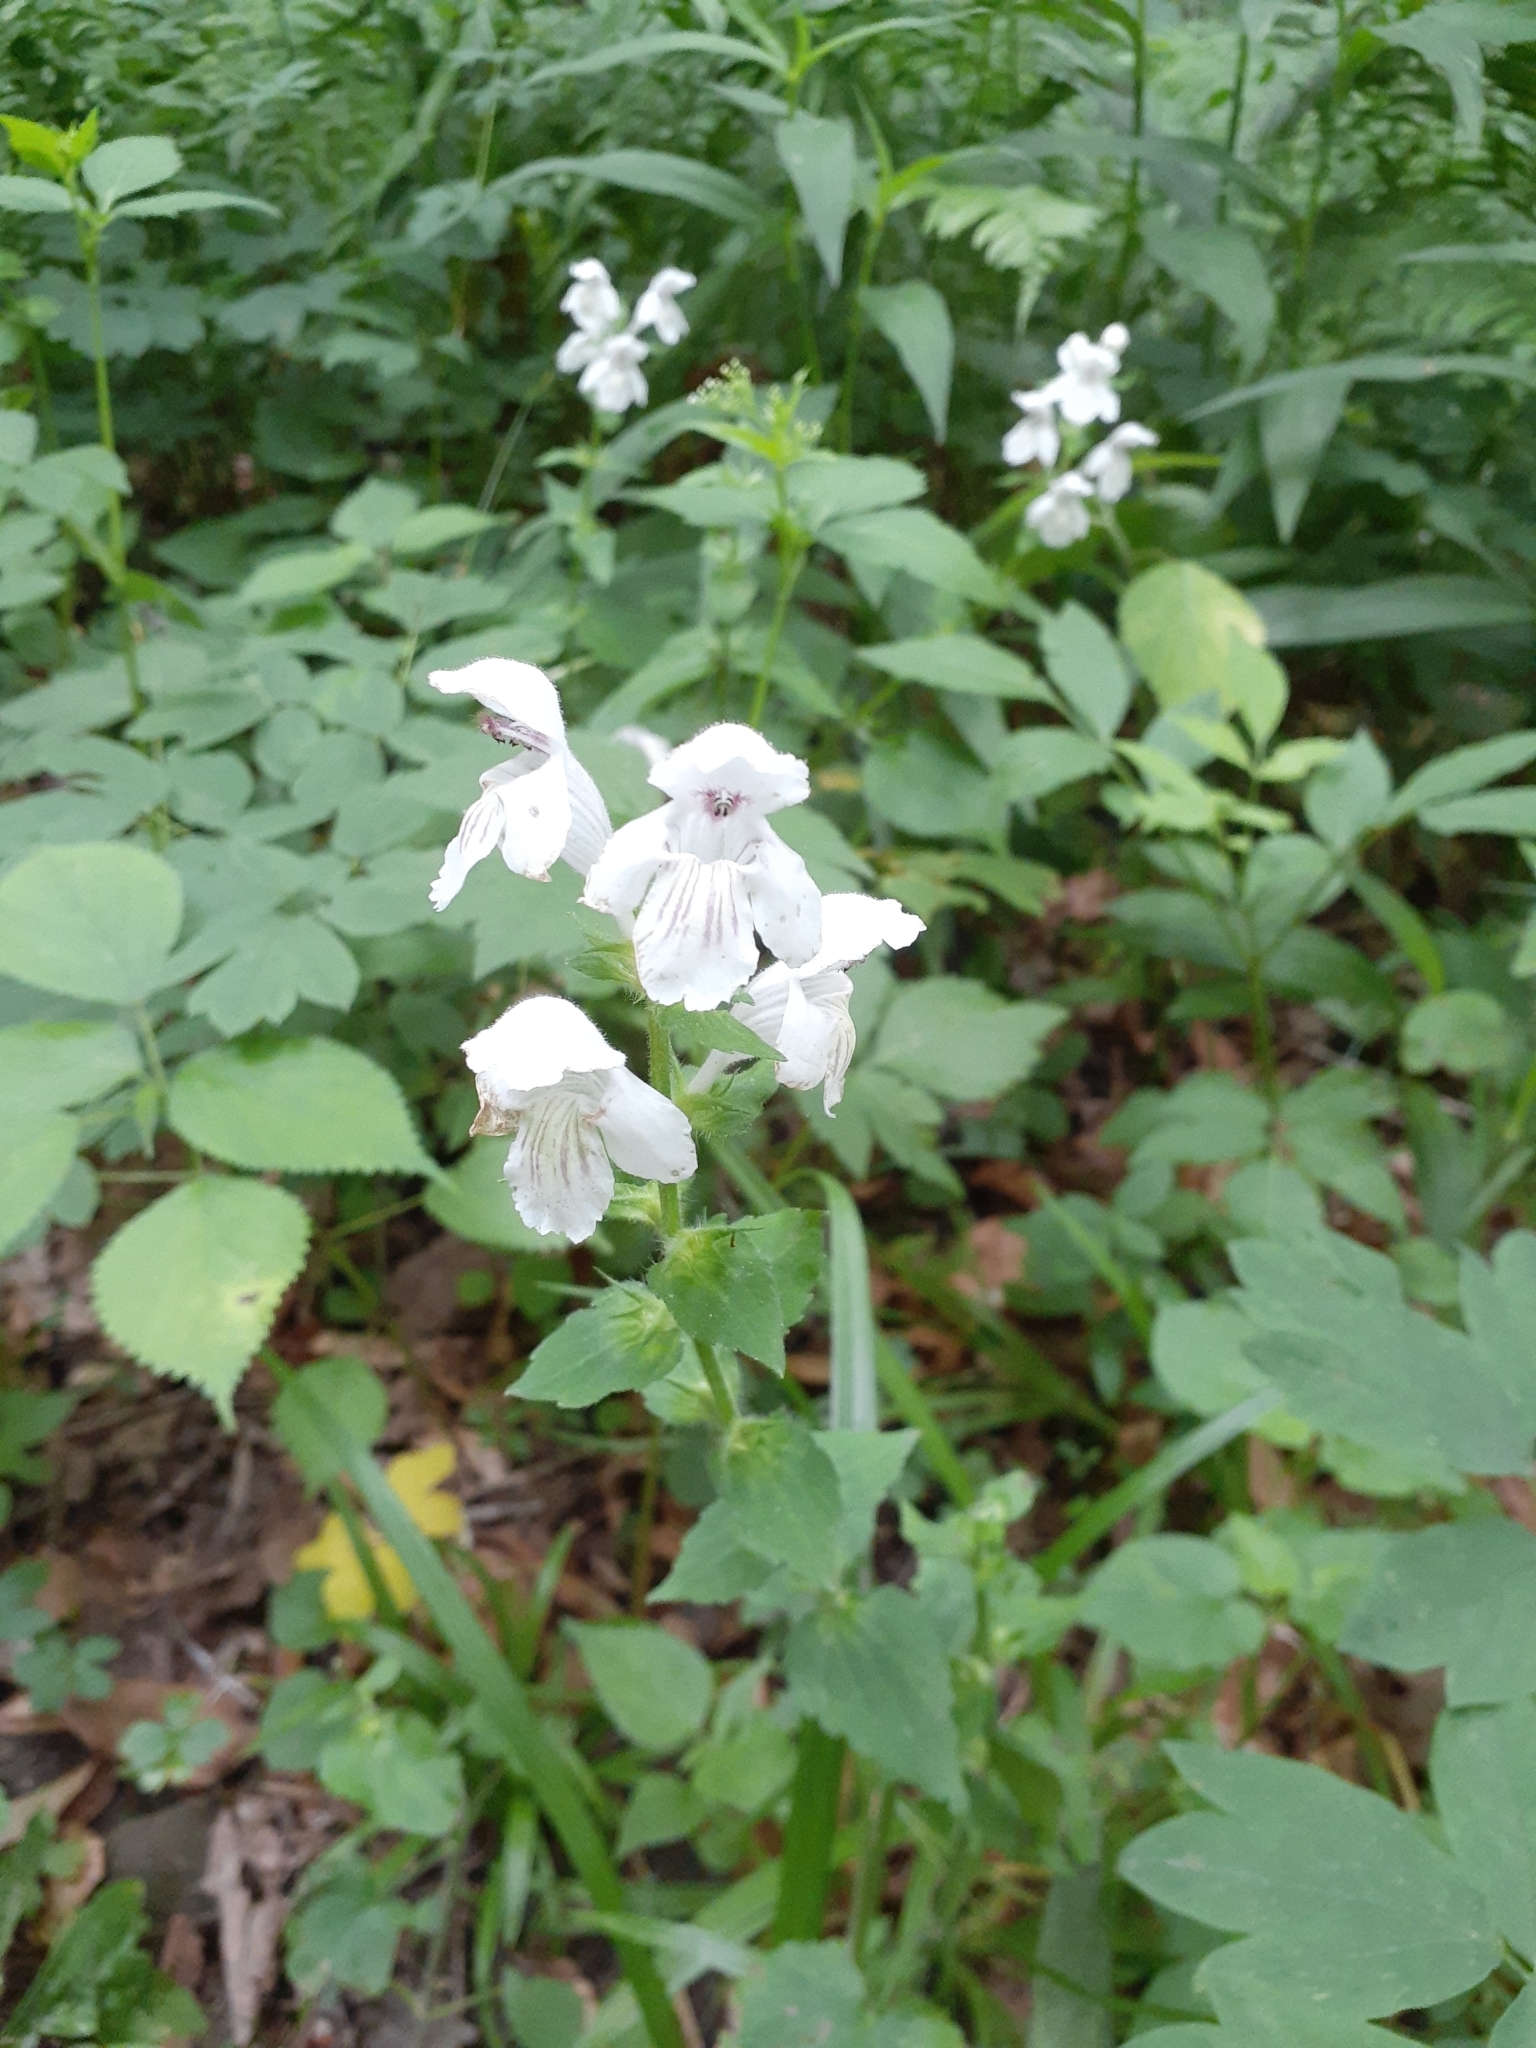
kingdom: Plantae
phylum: Tracheophyta
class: Magnoliopsida
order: Lamiales
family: Lamiaceae
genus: Synandra
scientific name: Synandra hispidula
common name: Synandra
